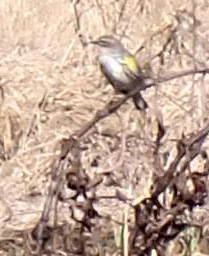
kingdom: Animalia
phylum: Chordata
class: Aves
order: Passeriformes
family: Parulidae
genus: Setophaga
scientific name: Setophaga coronata
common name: Myrtle warbler
